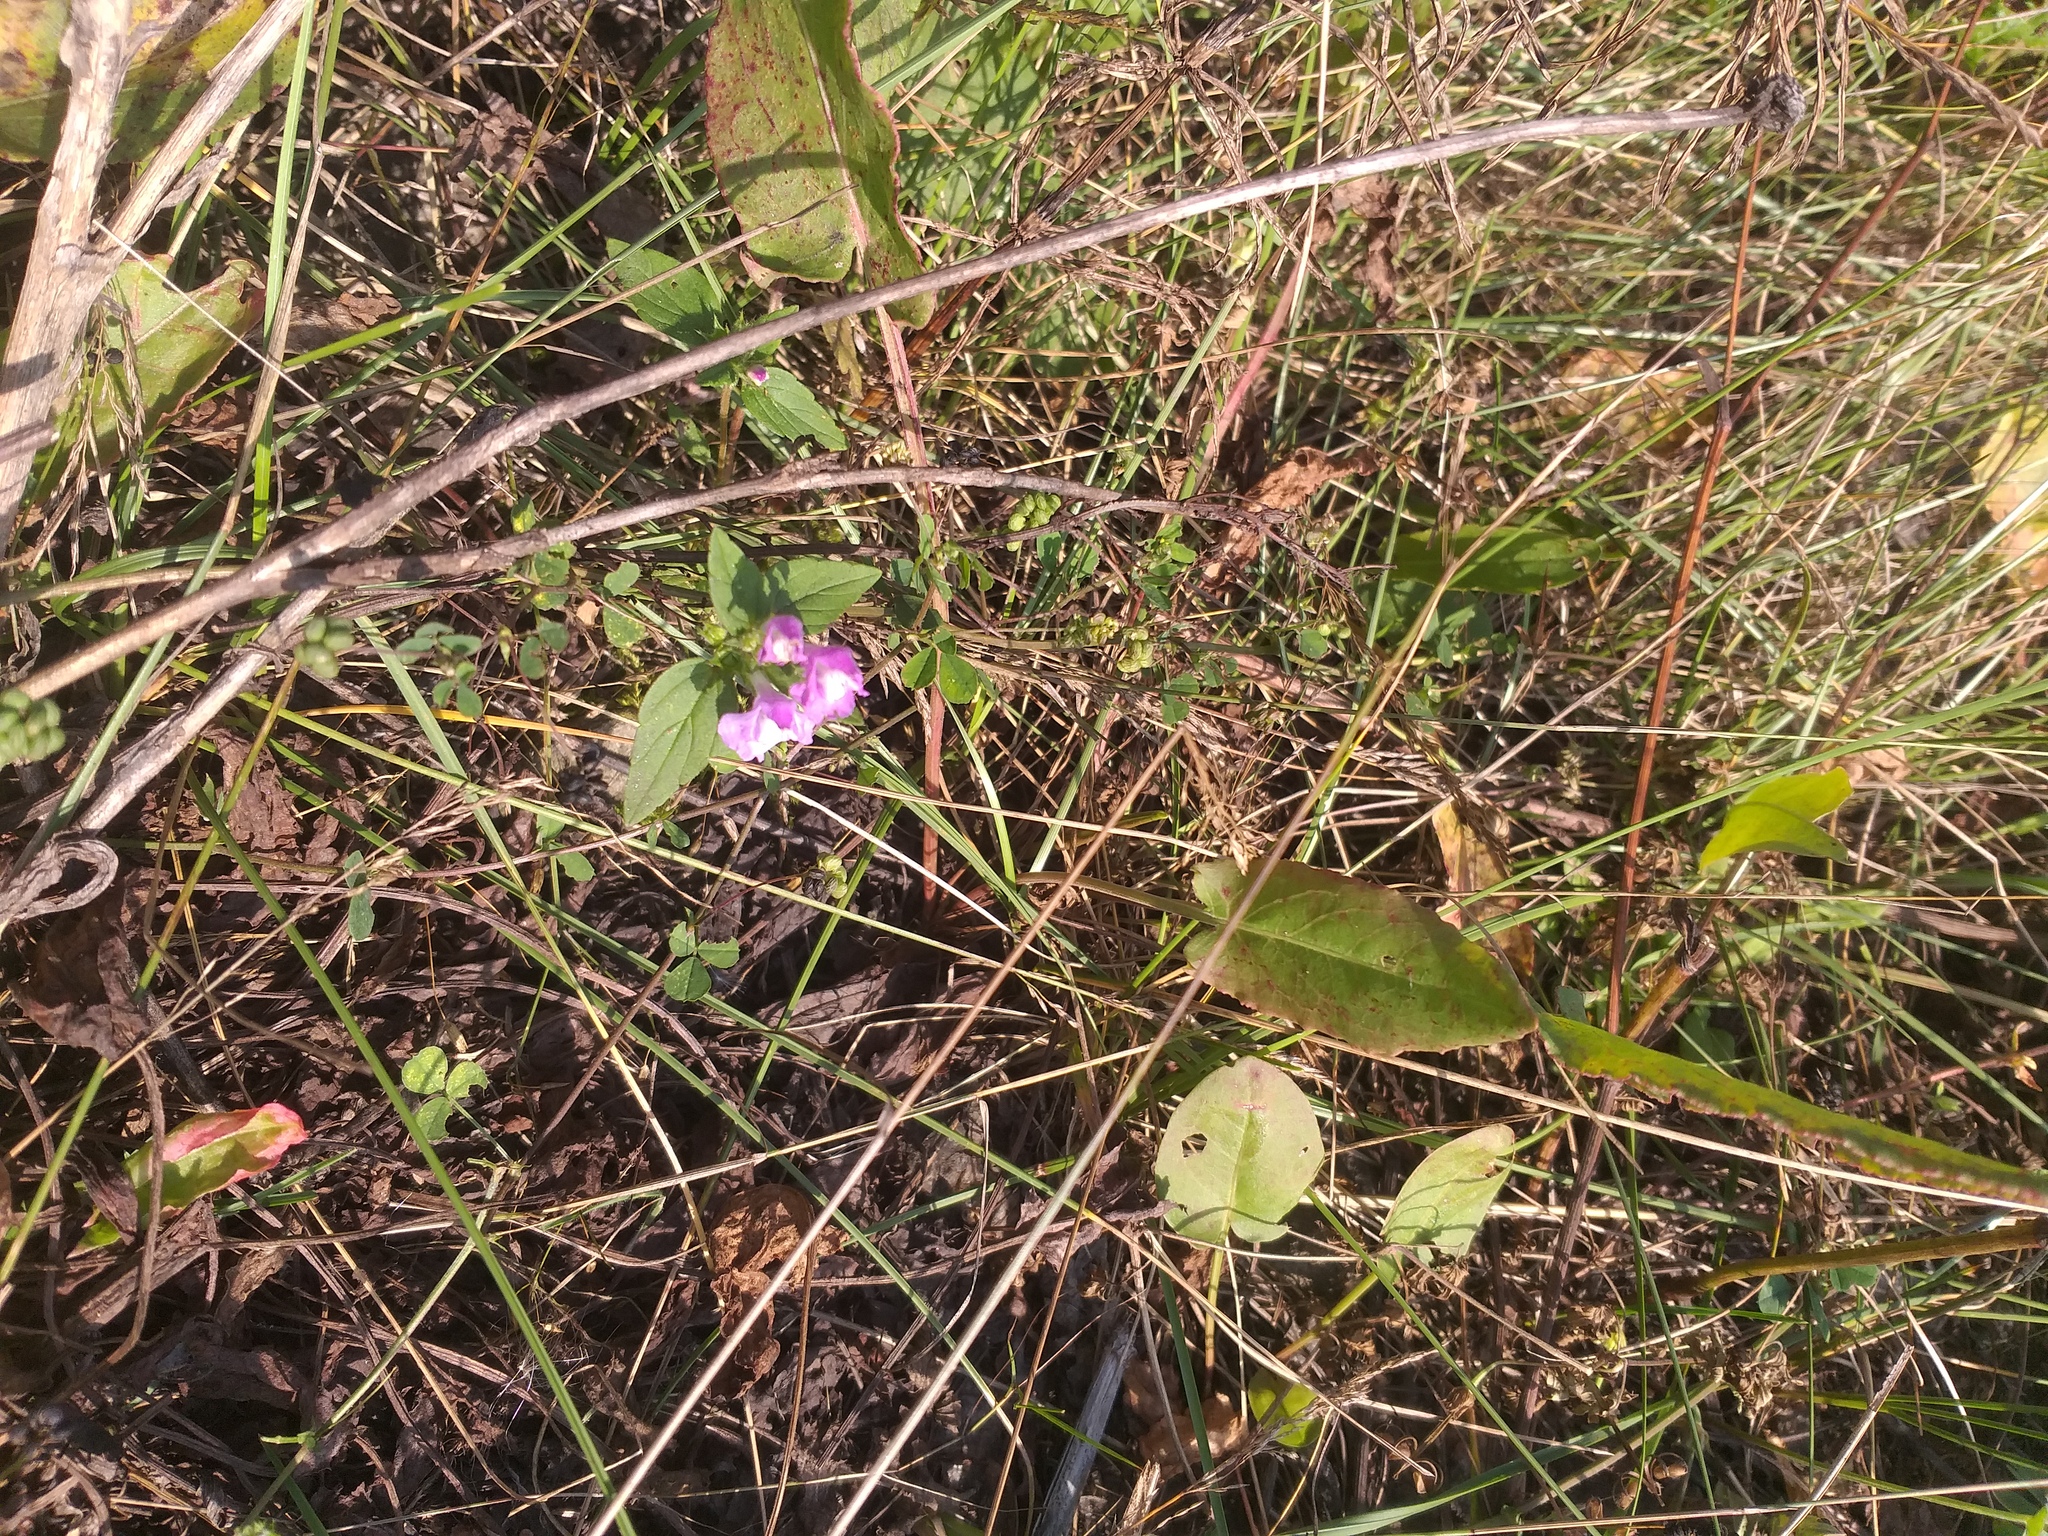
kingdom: Plantae
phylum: Tracheophyta
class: Magnoliopsida
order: Lamiales
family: Lamiaceae
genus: Galeopsis
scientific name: Galeopsis ladanum
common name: Broad-leaved hemp-nettle
